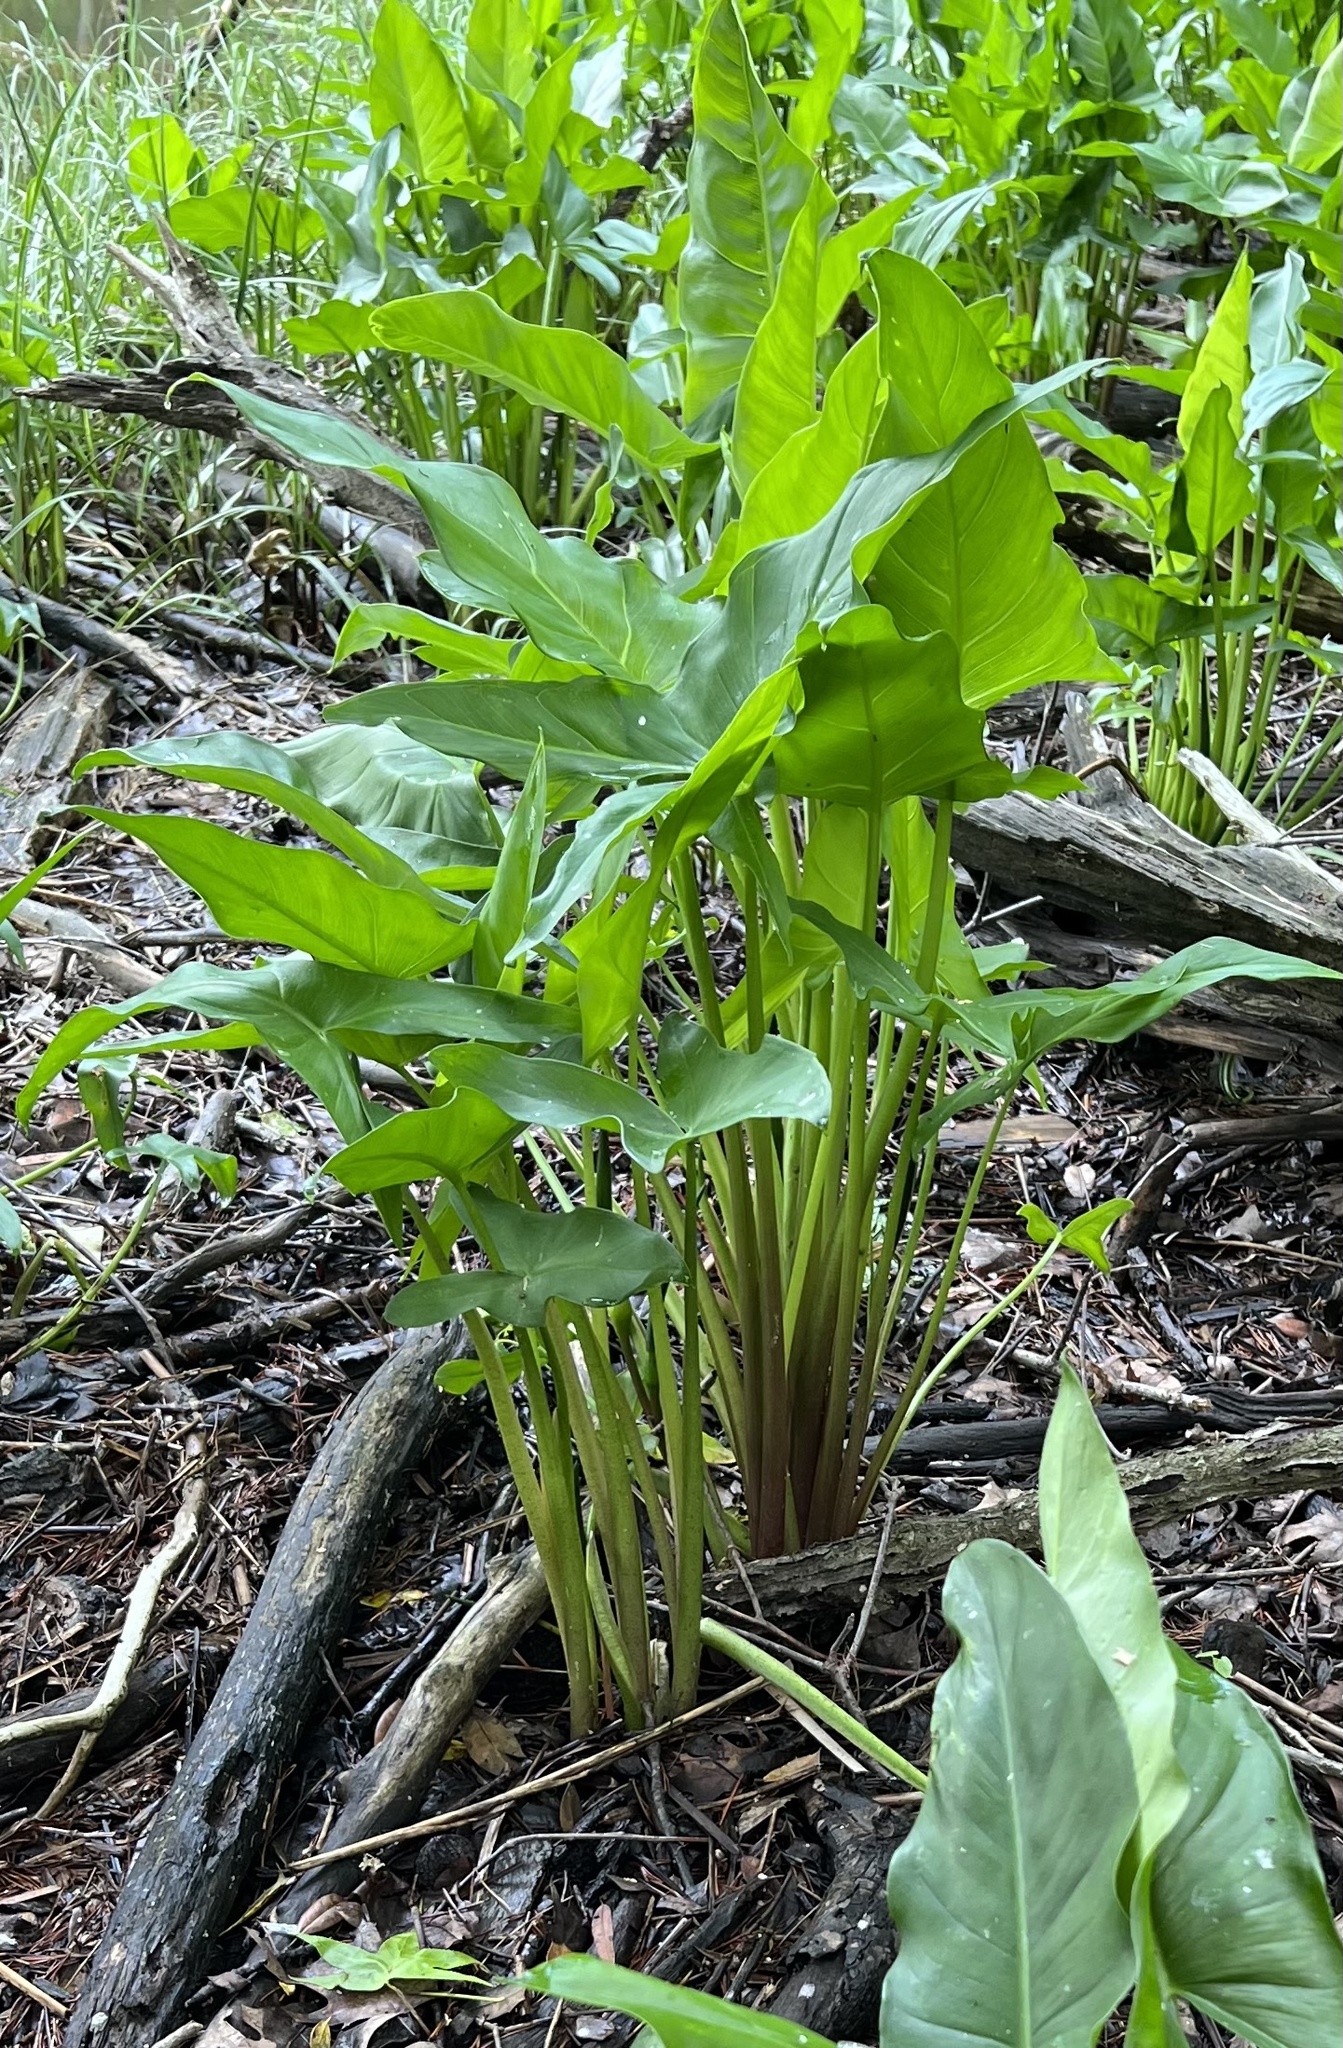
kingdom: Plantae
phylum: Tracheophyta
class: Liliopsida
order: Alismatales
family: Araceae
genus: Peltandra
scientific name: Peltandra virginica
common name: Arrow arum
